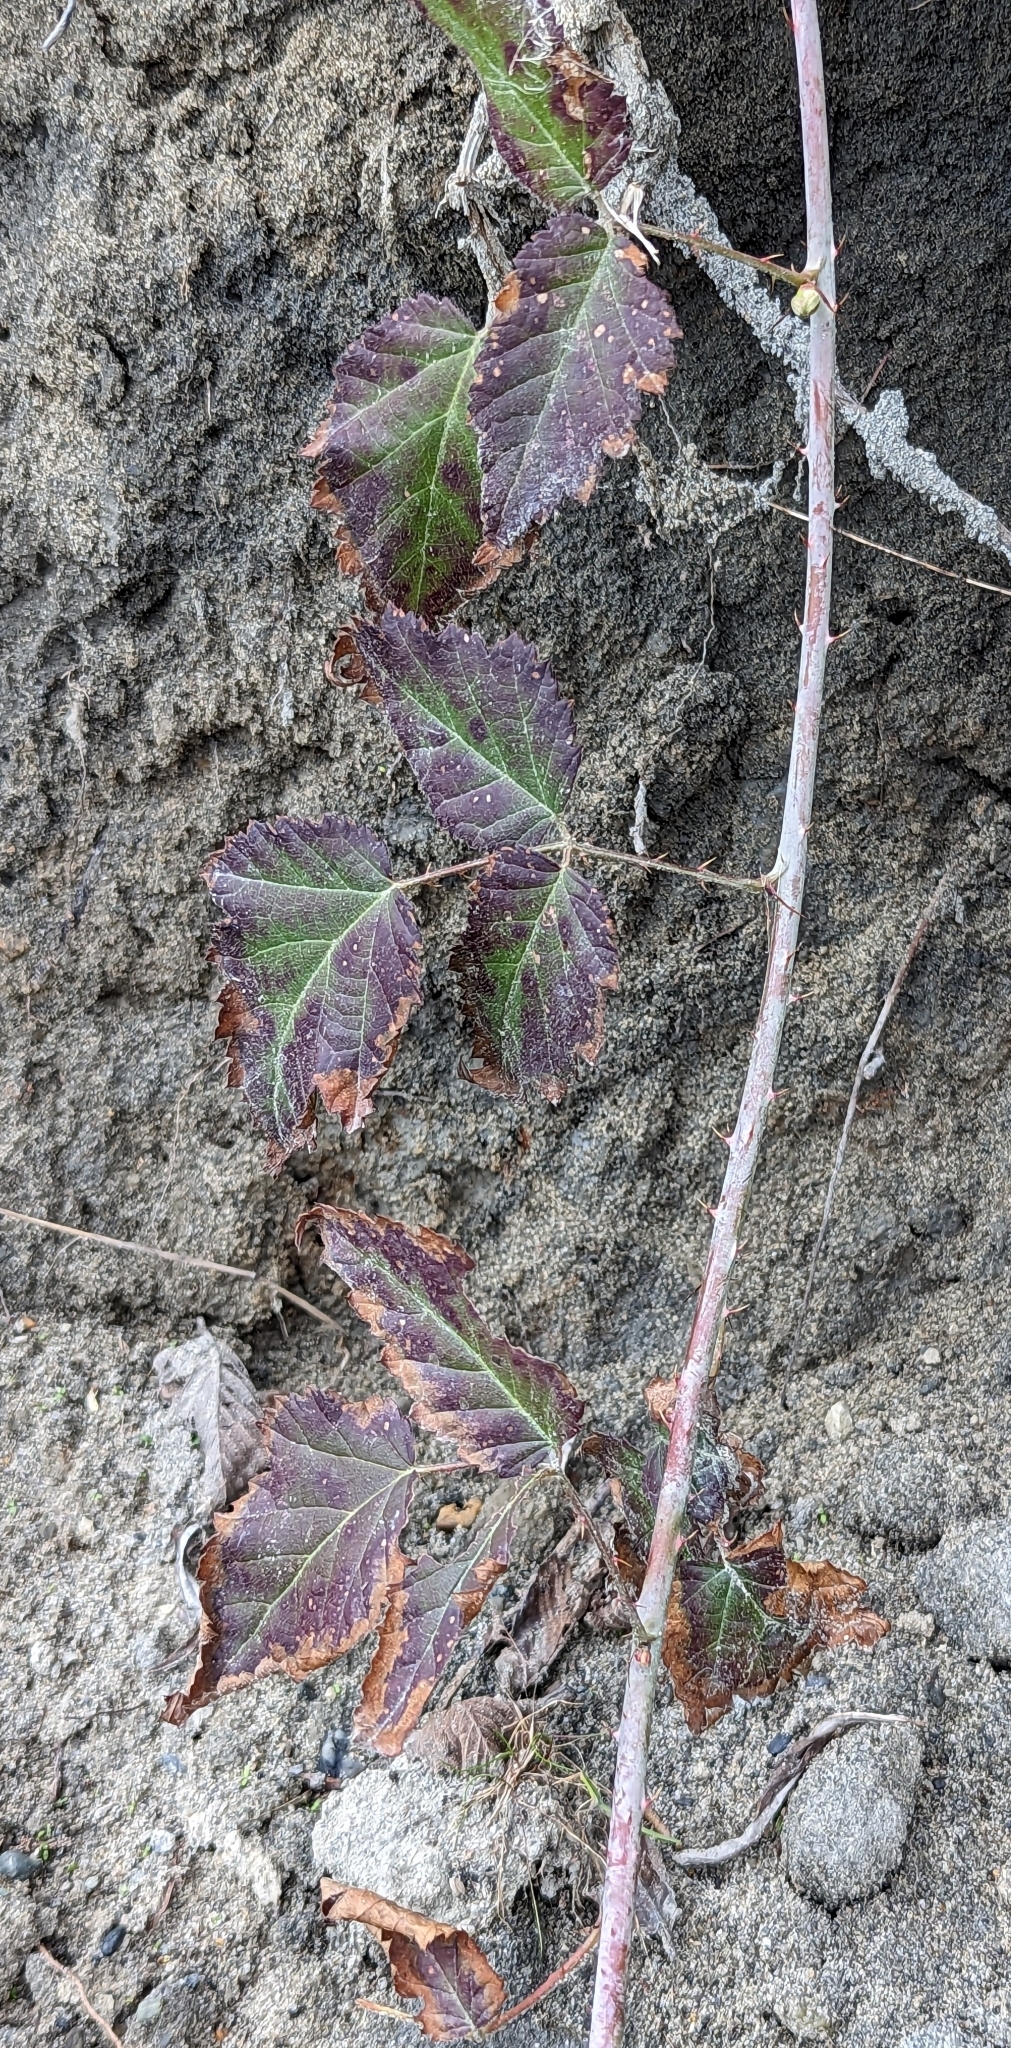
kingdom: Plantae
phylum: Tracheophyta
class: Magnoliopsida
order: Rosales
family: Rosaceae
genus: Rubus
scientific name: Rubus ursinus
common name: Pacific blackberry
